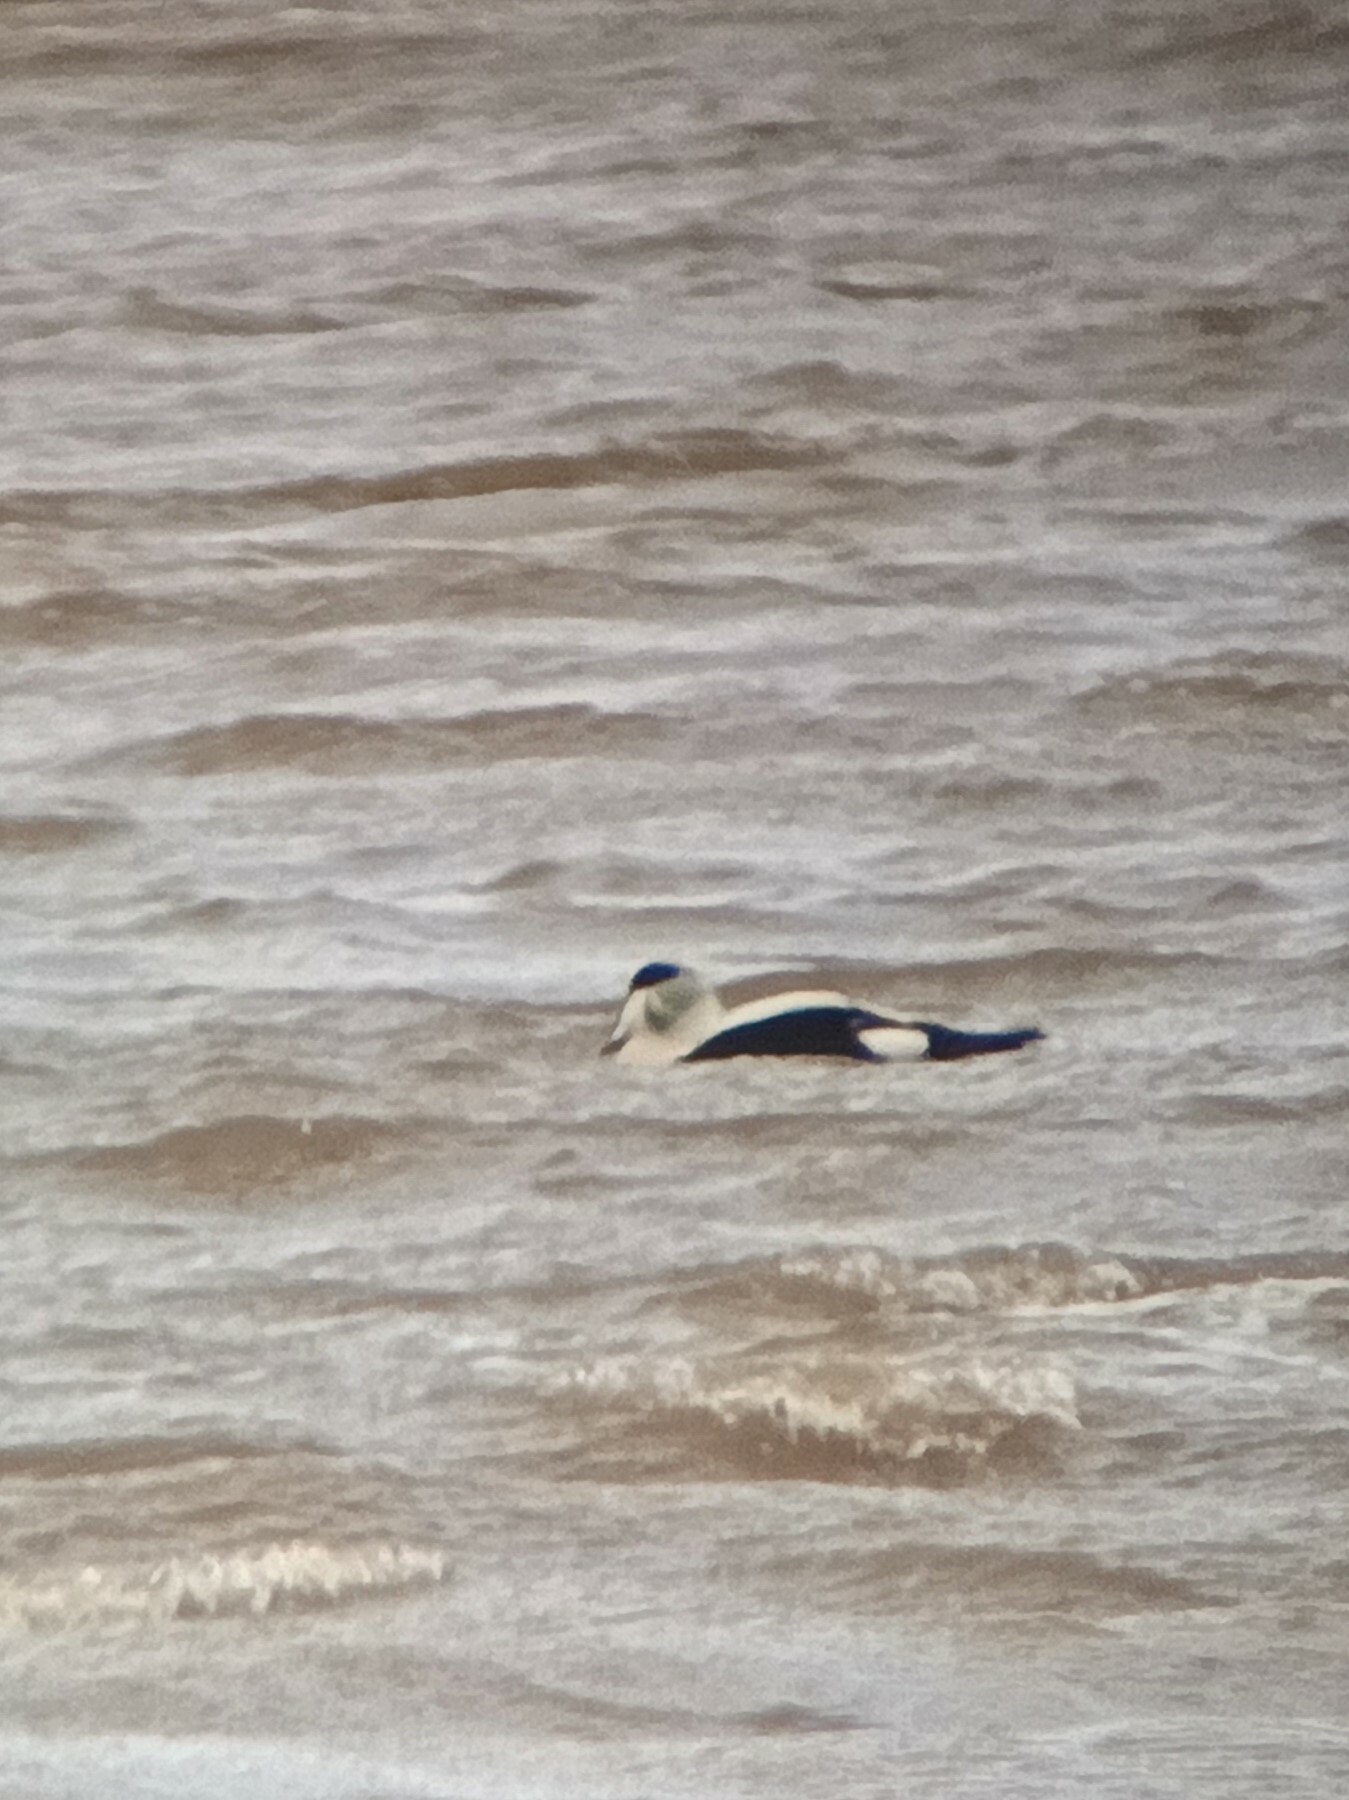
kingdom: Animalia
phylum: Chordata
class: Aves
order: Anseriformes
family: Anatidae
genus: Somateria
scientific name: Somateria mollissima
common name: Common eider
